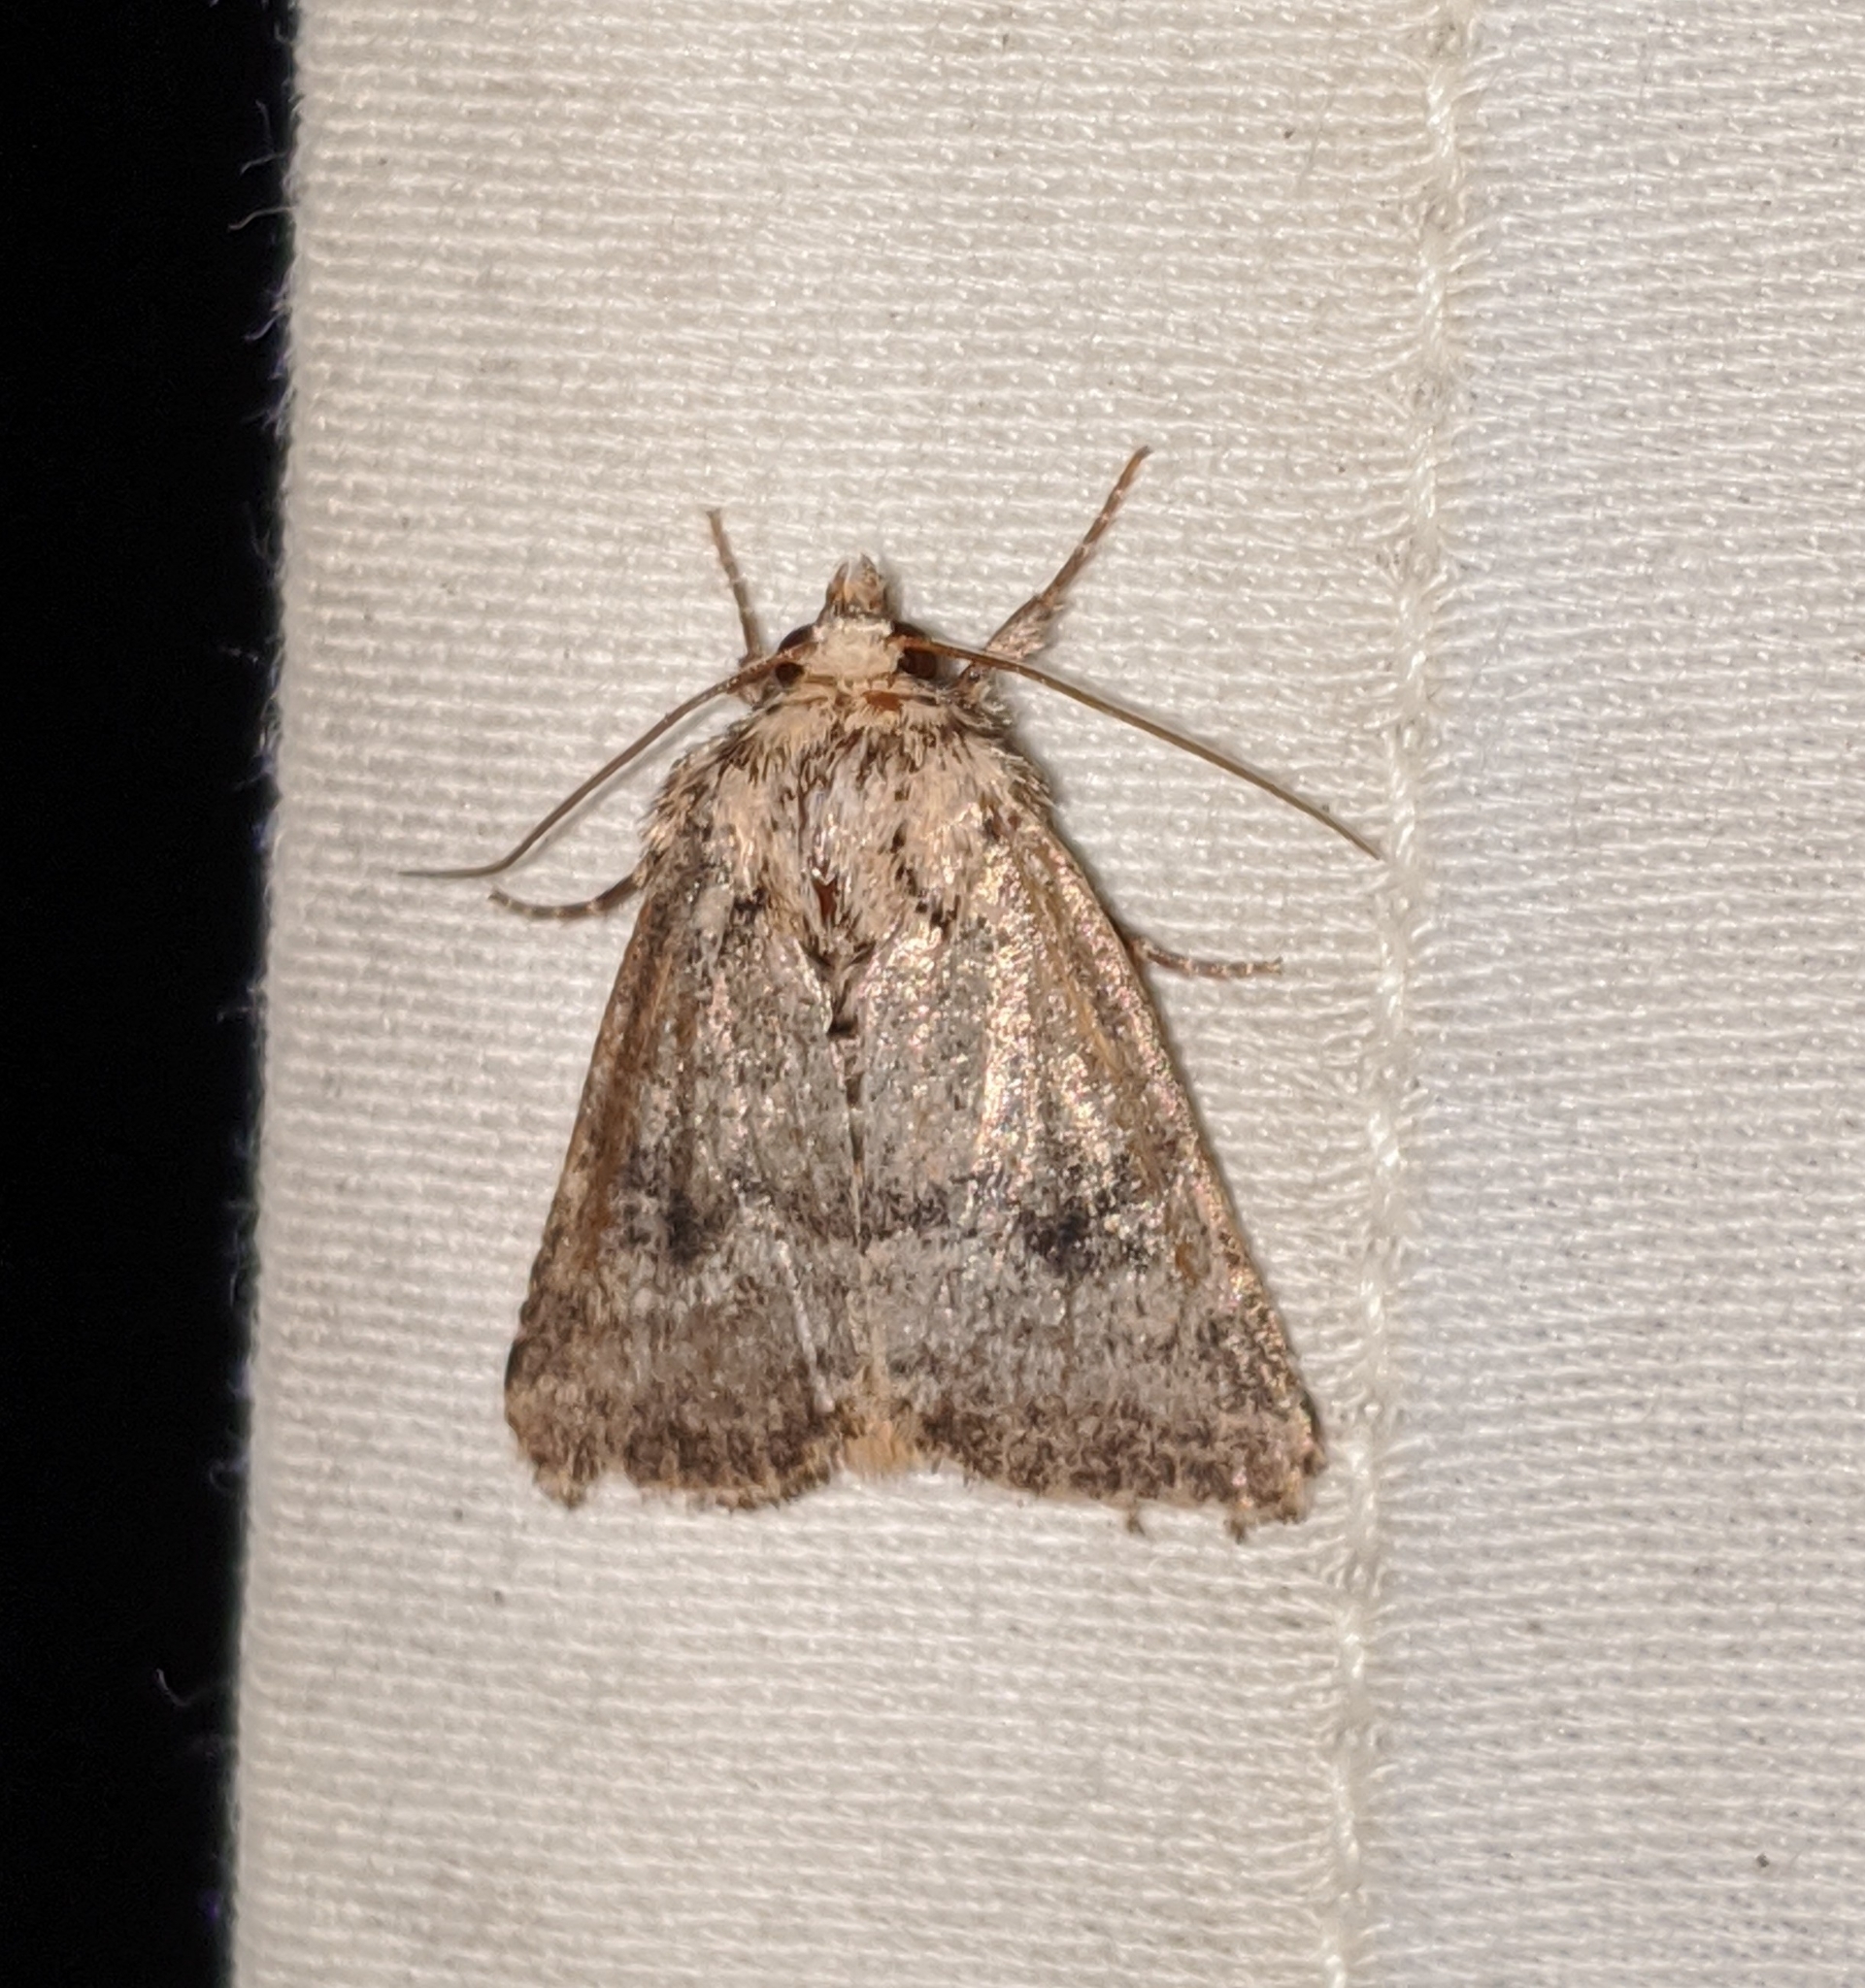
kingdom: Animalia
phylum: Arthropoda
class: Insecta
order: Lepidoptera
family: Noctuidae
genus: Homorthodes
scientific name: Homorthodes hanhami
